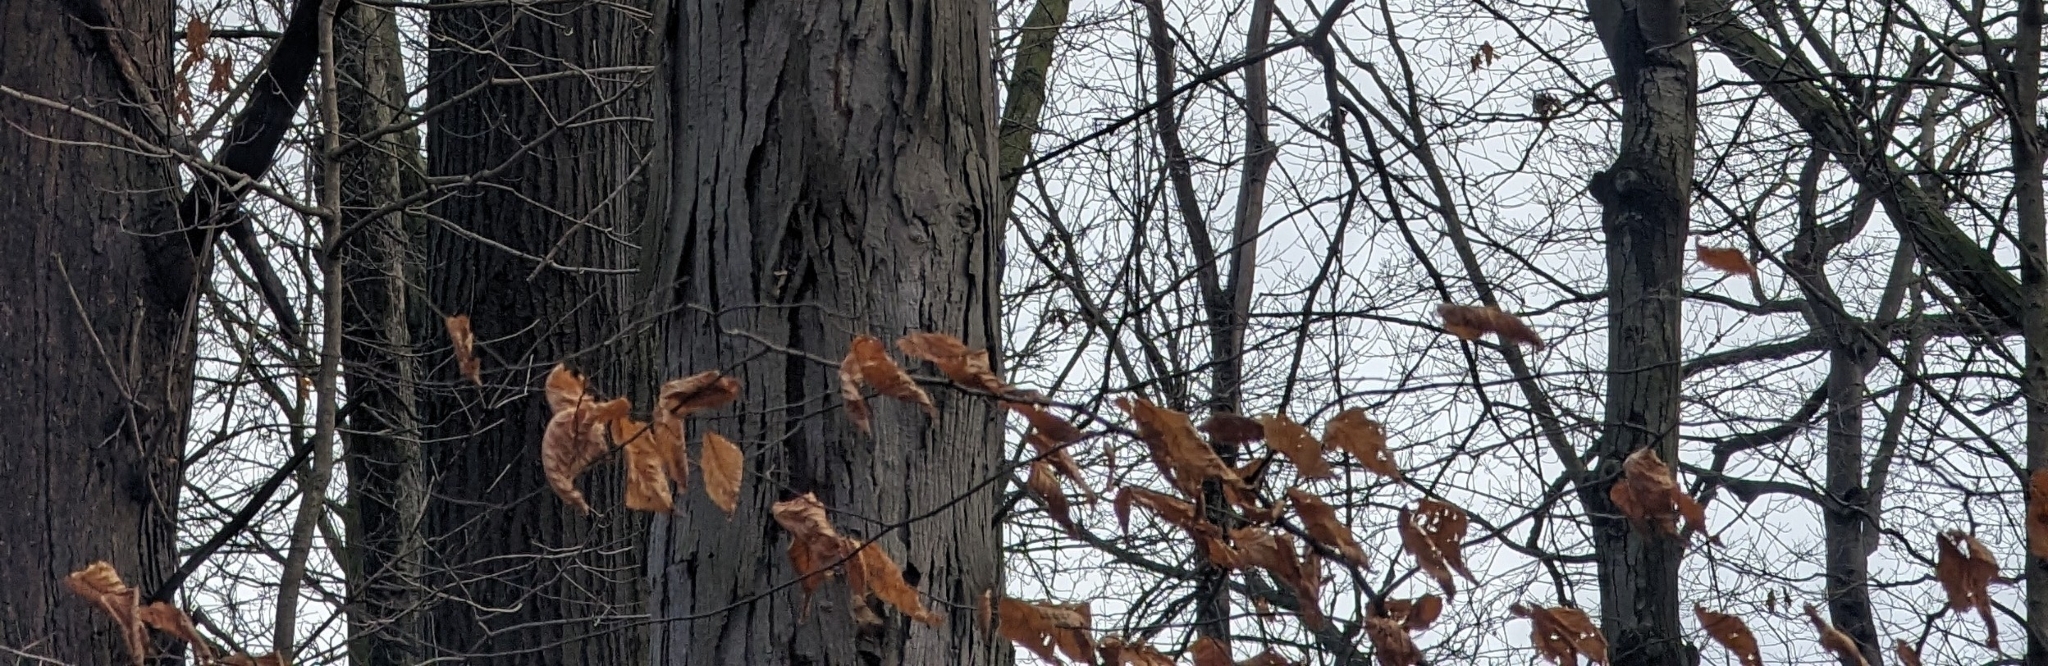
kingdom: Plantae
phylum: Tracheophyta
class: Magnoliopsida
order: Fagales
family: Fagaceae
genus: Fagus
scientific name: Fagus grandifolia
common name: American beech
